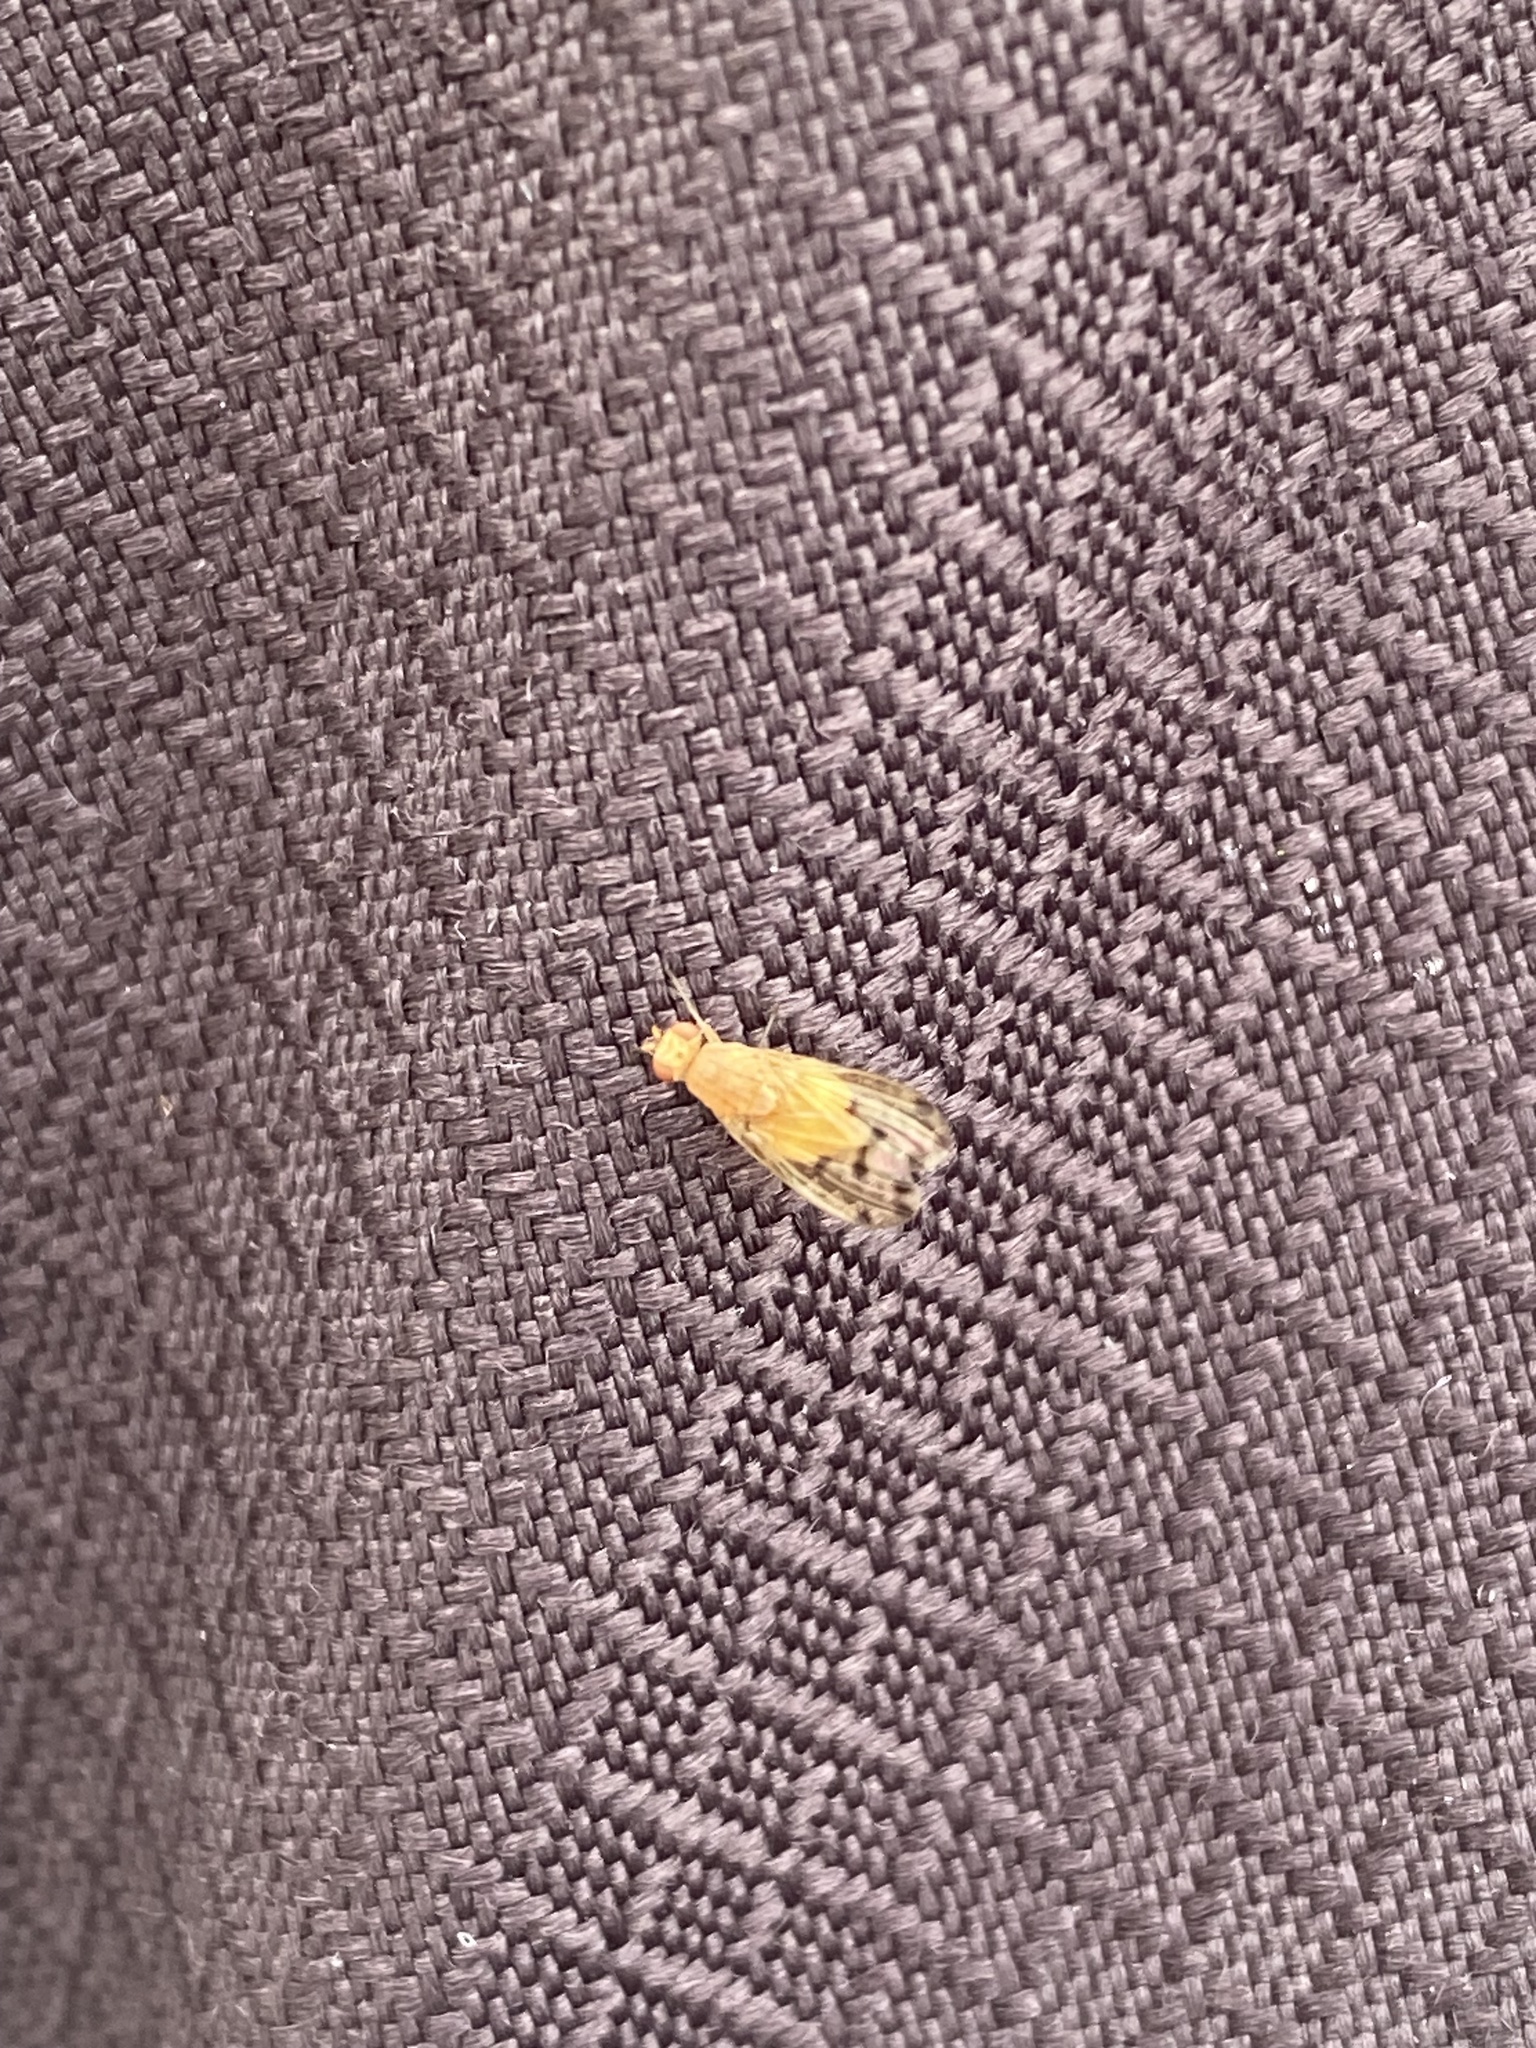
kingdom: Animalia
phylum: Arthropoda
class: Insecta
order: Diptera
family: Lauxaniidae
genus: Meiosimyza
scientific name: Meiosimyza decempunctata
